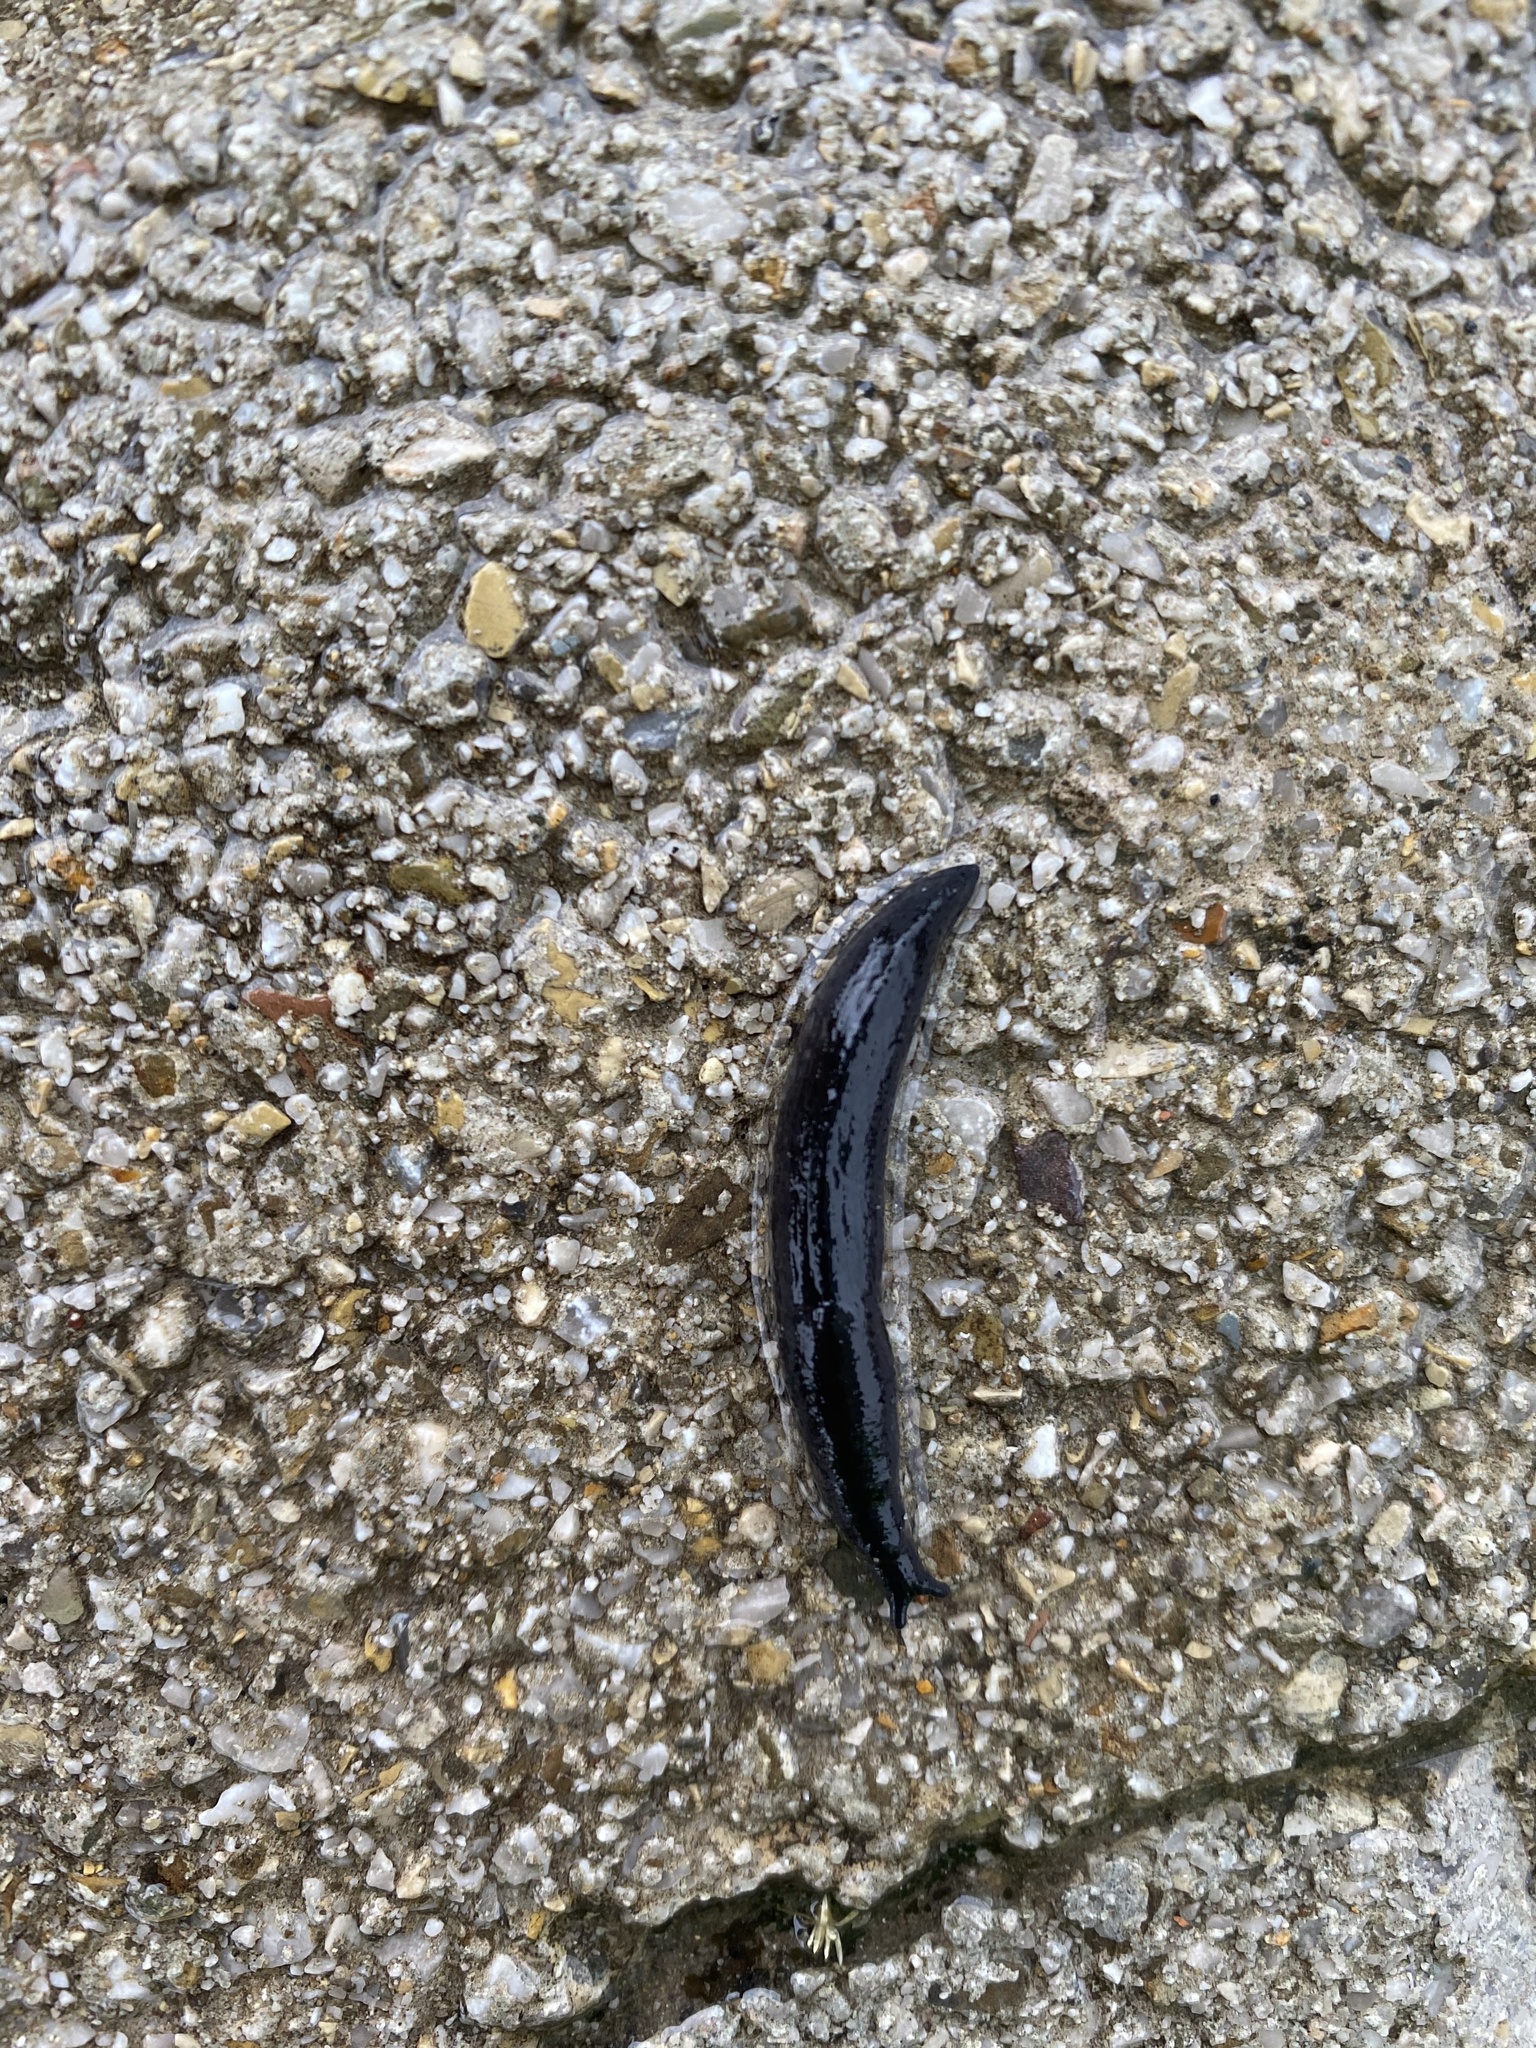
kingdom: Animalia
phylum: Mollusca
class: Gastropoda
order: Stylommatophora
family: Milacidae
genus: Milax
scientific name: Milax nigricans
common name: Black slug
